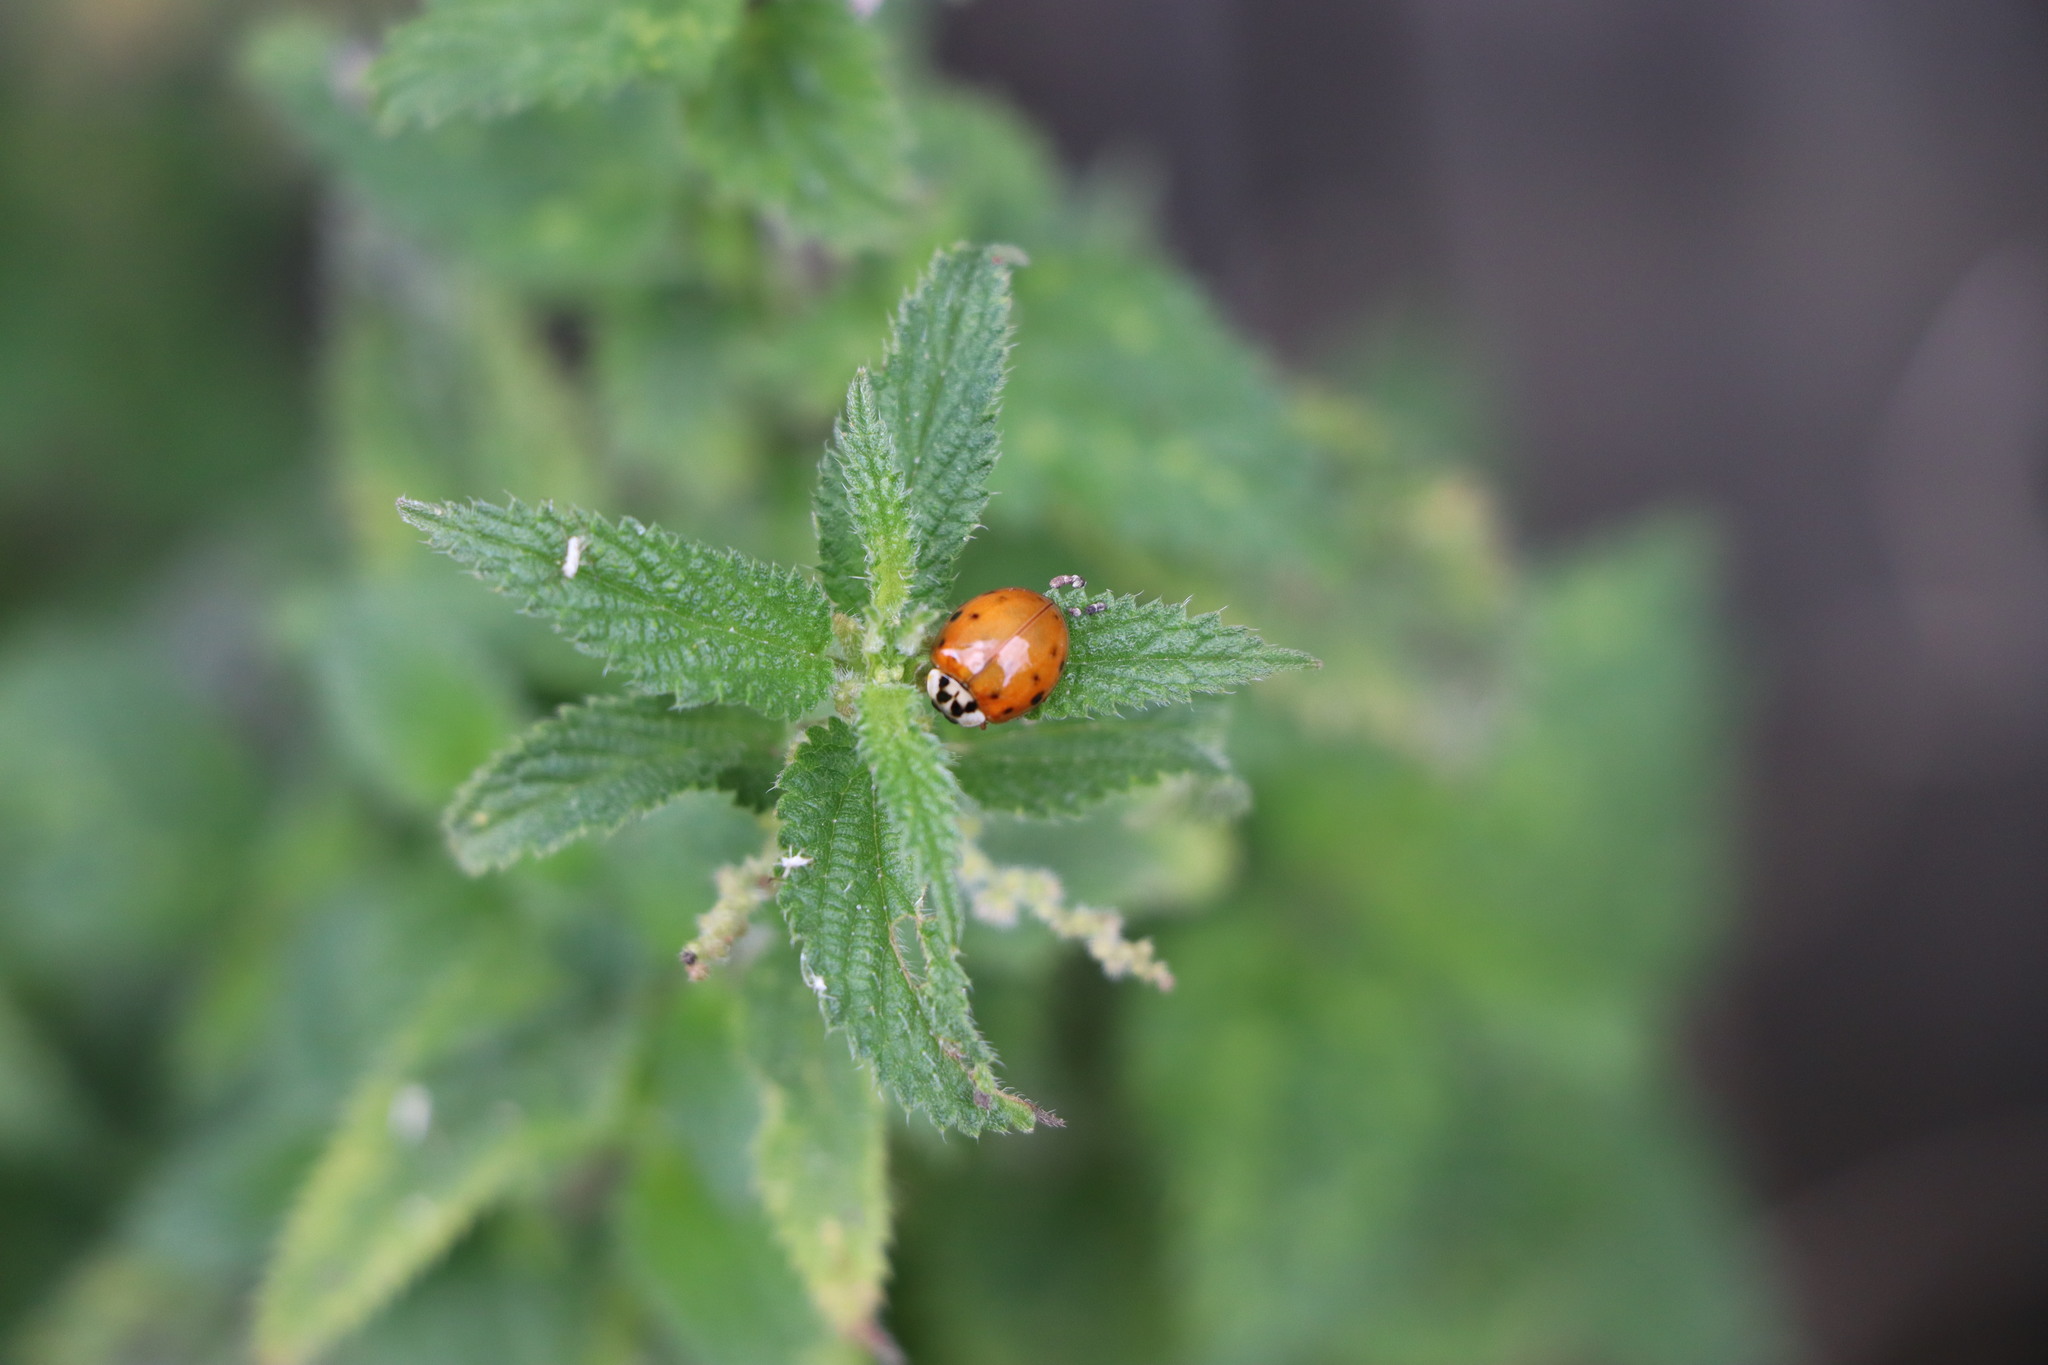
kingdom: Animalia
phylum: Arthropoda
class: Insecta
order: Coleoptera
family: Coccinellidae
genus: Harmonia
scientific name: Harmonia axyridis
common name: Harlequin ladybird
